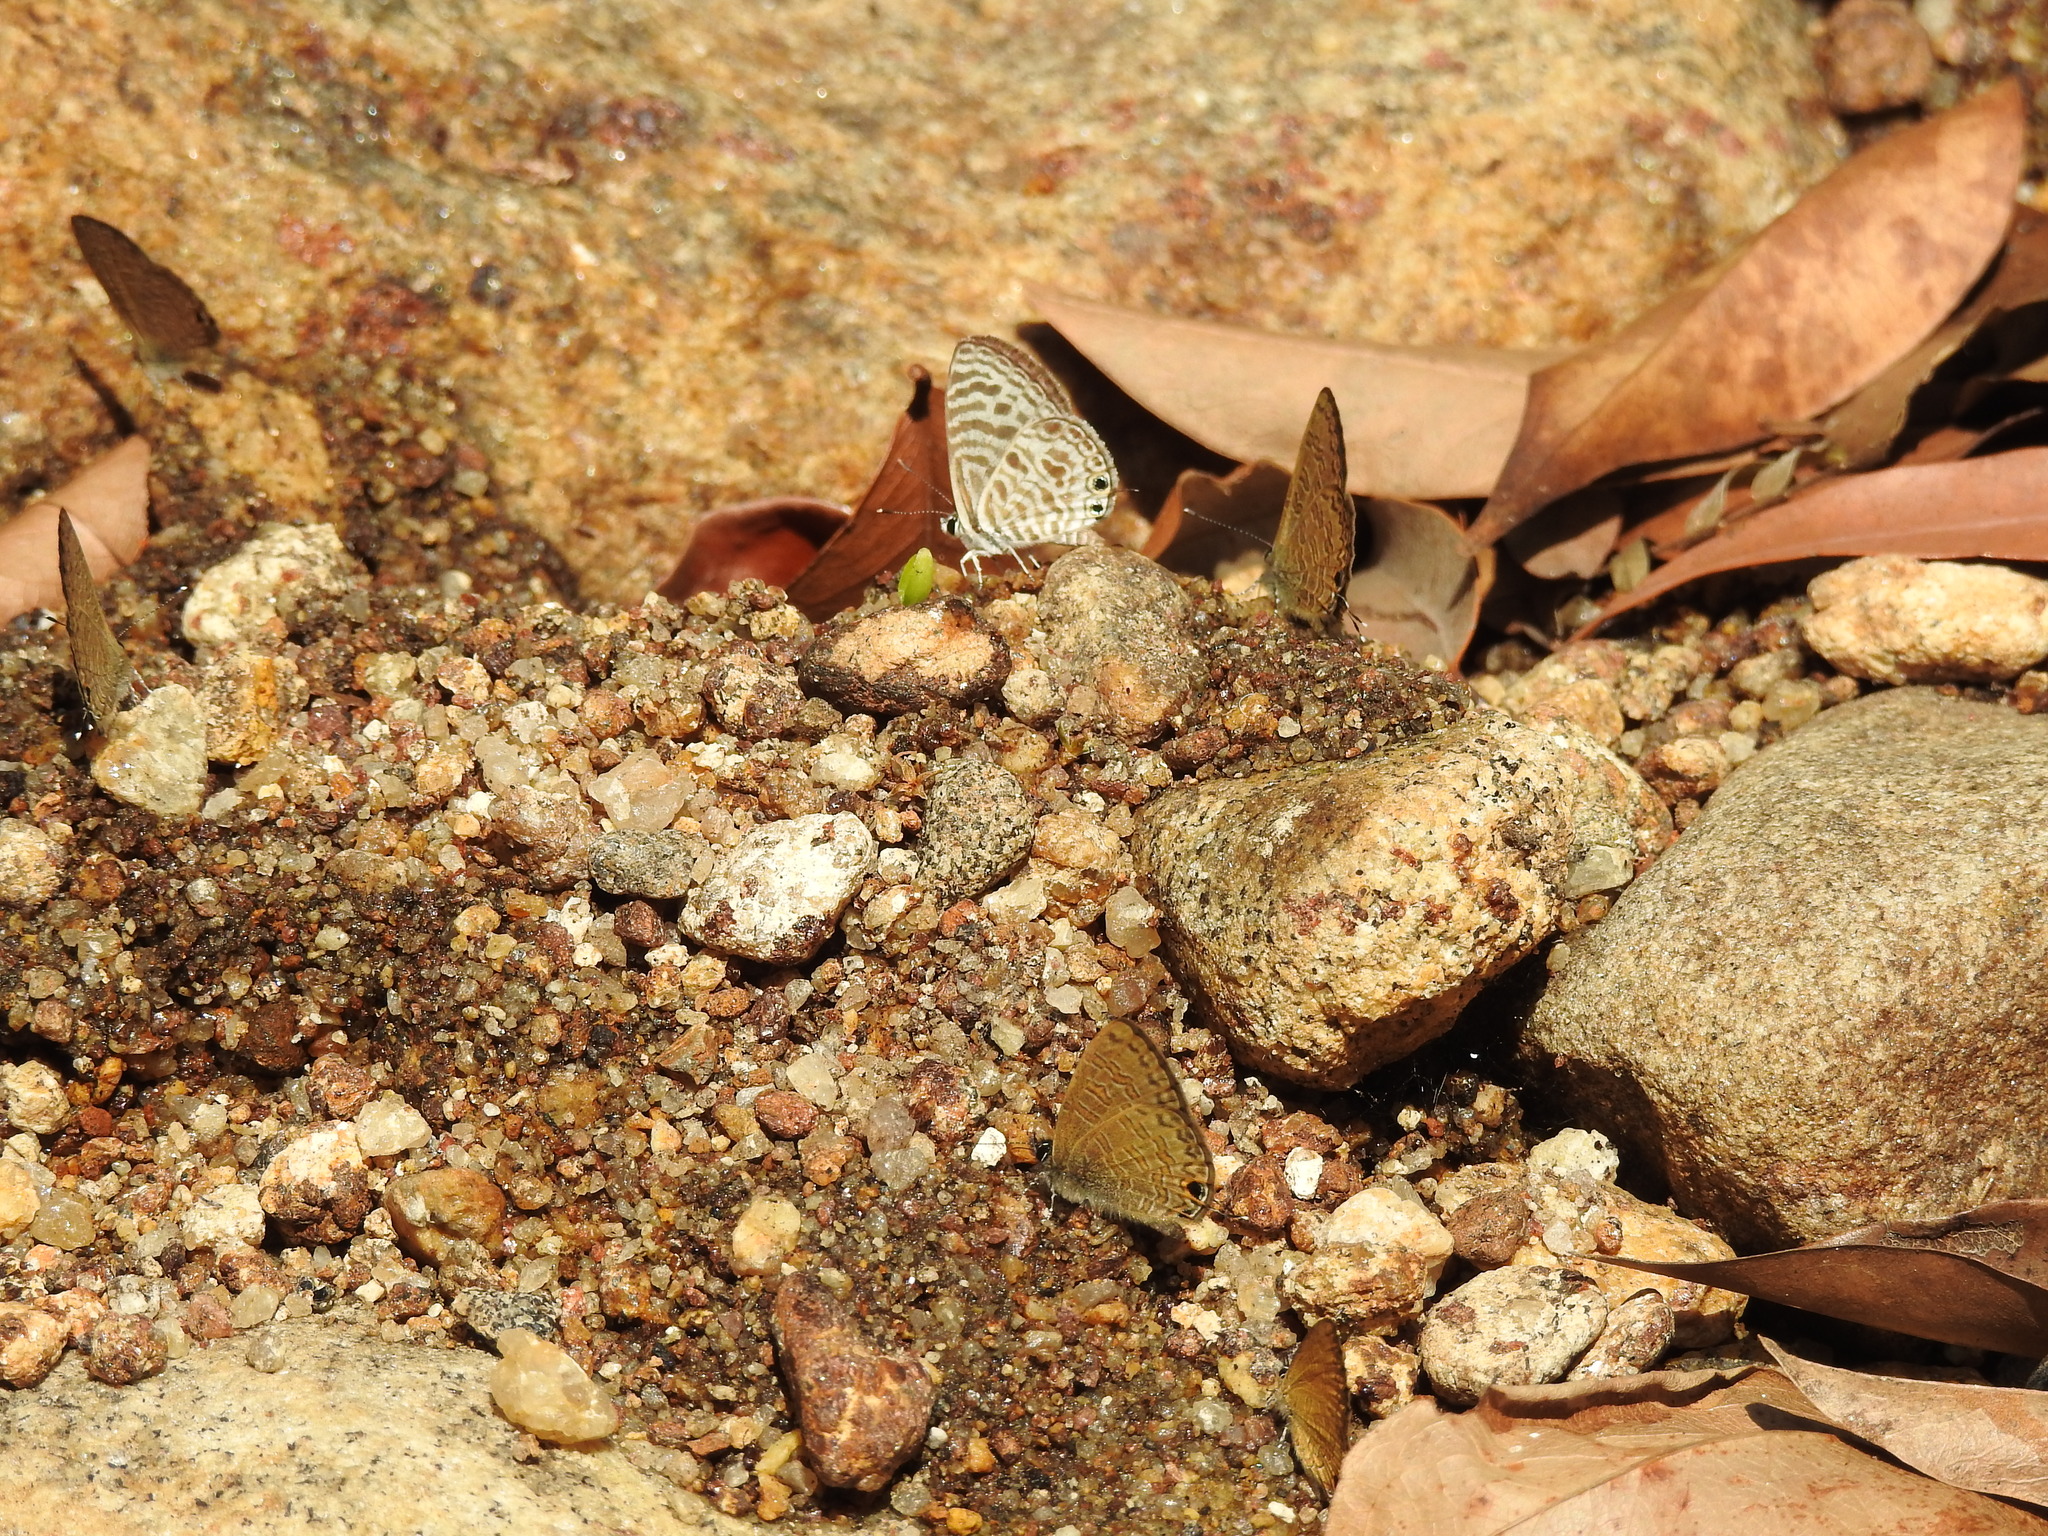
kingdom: Animalia
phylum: Arthropoda
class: Insecta
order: Lepidoptera
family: Lycaenidae
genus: Prosotas
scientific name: Prosotas nora
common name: Common line blue
